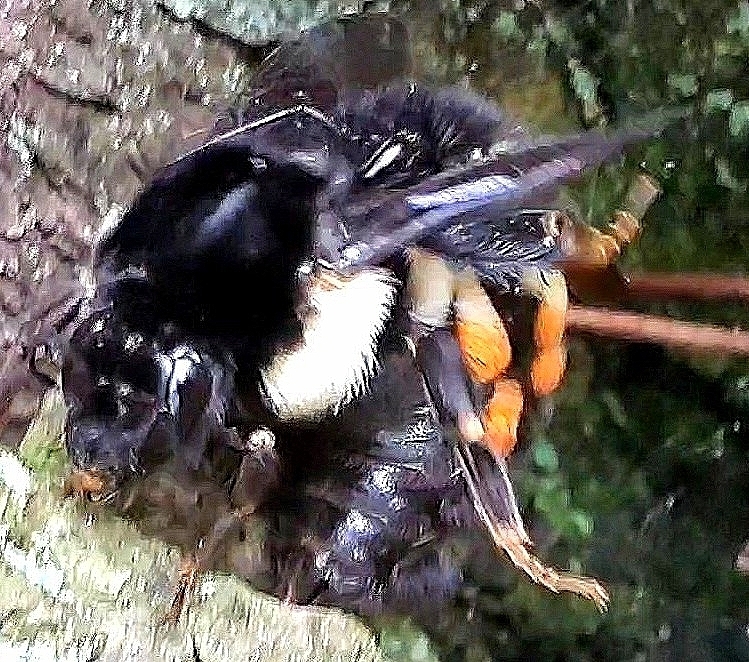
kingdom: Animalia
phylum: Arthropoda
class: Insecta
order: Hymenoptera
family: Apidae
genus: Bombus
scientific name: Bombus ephippiatus
